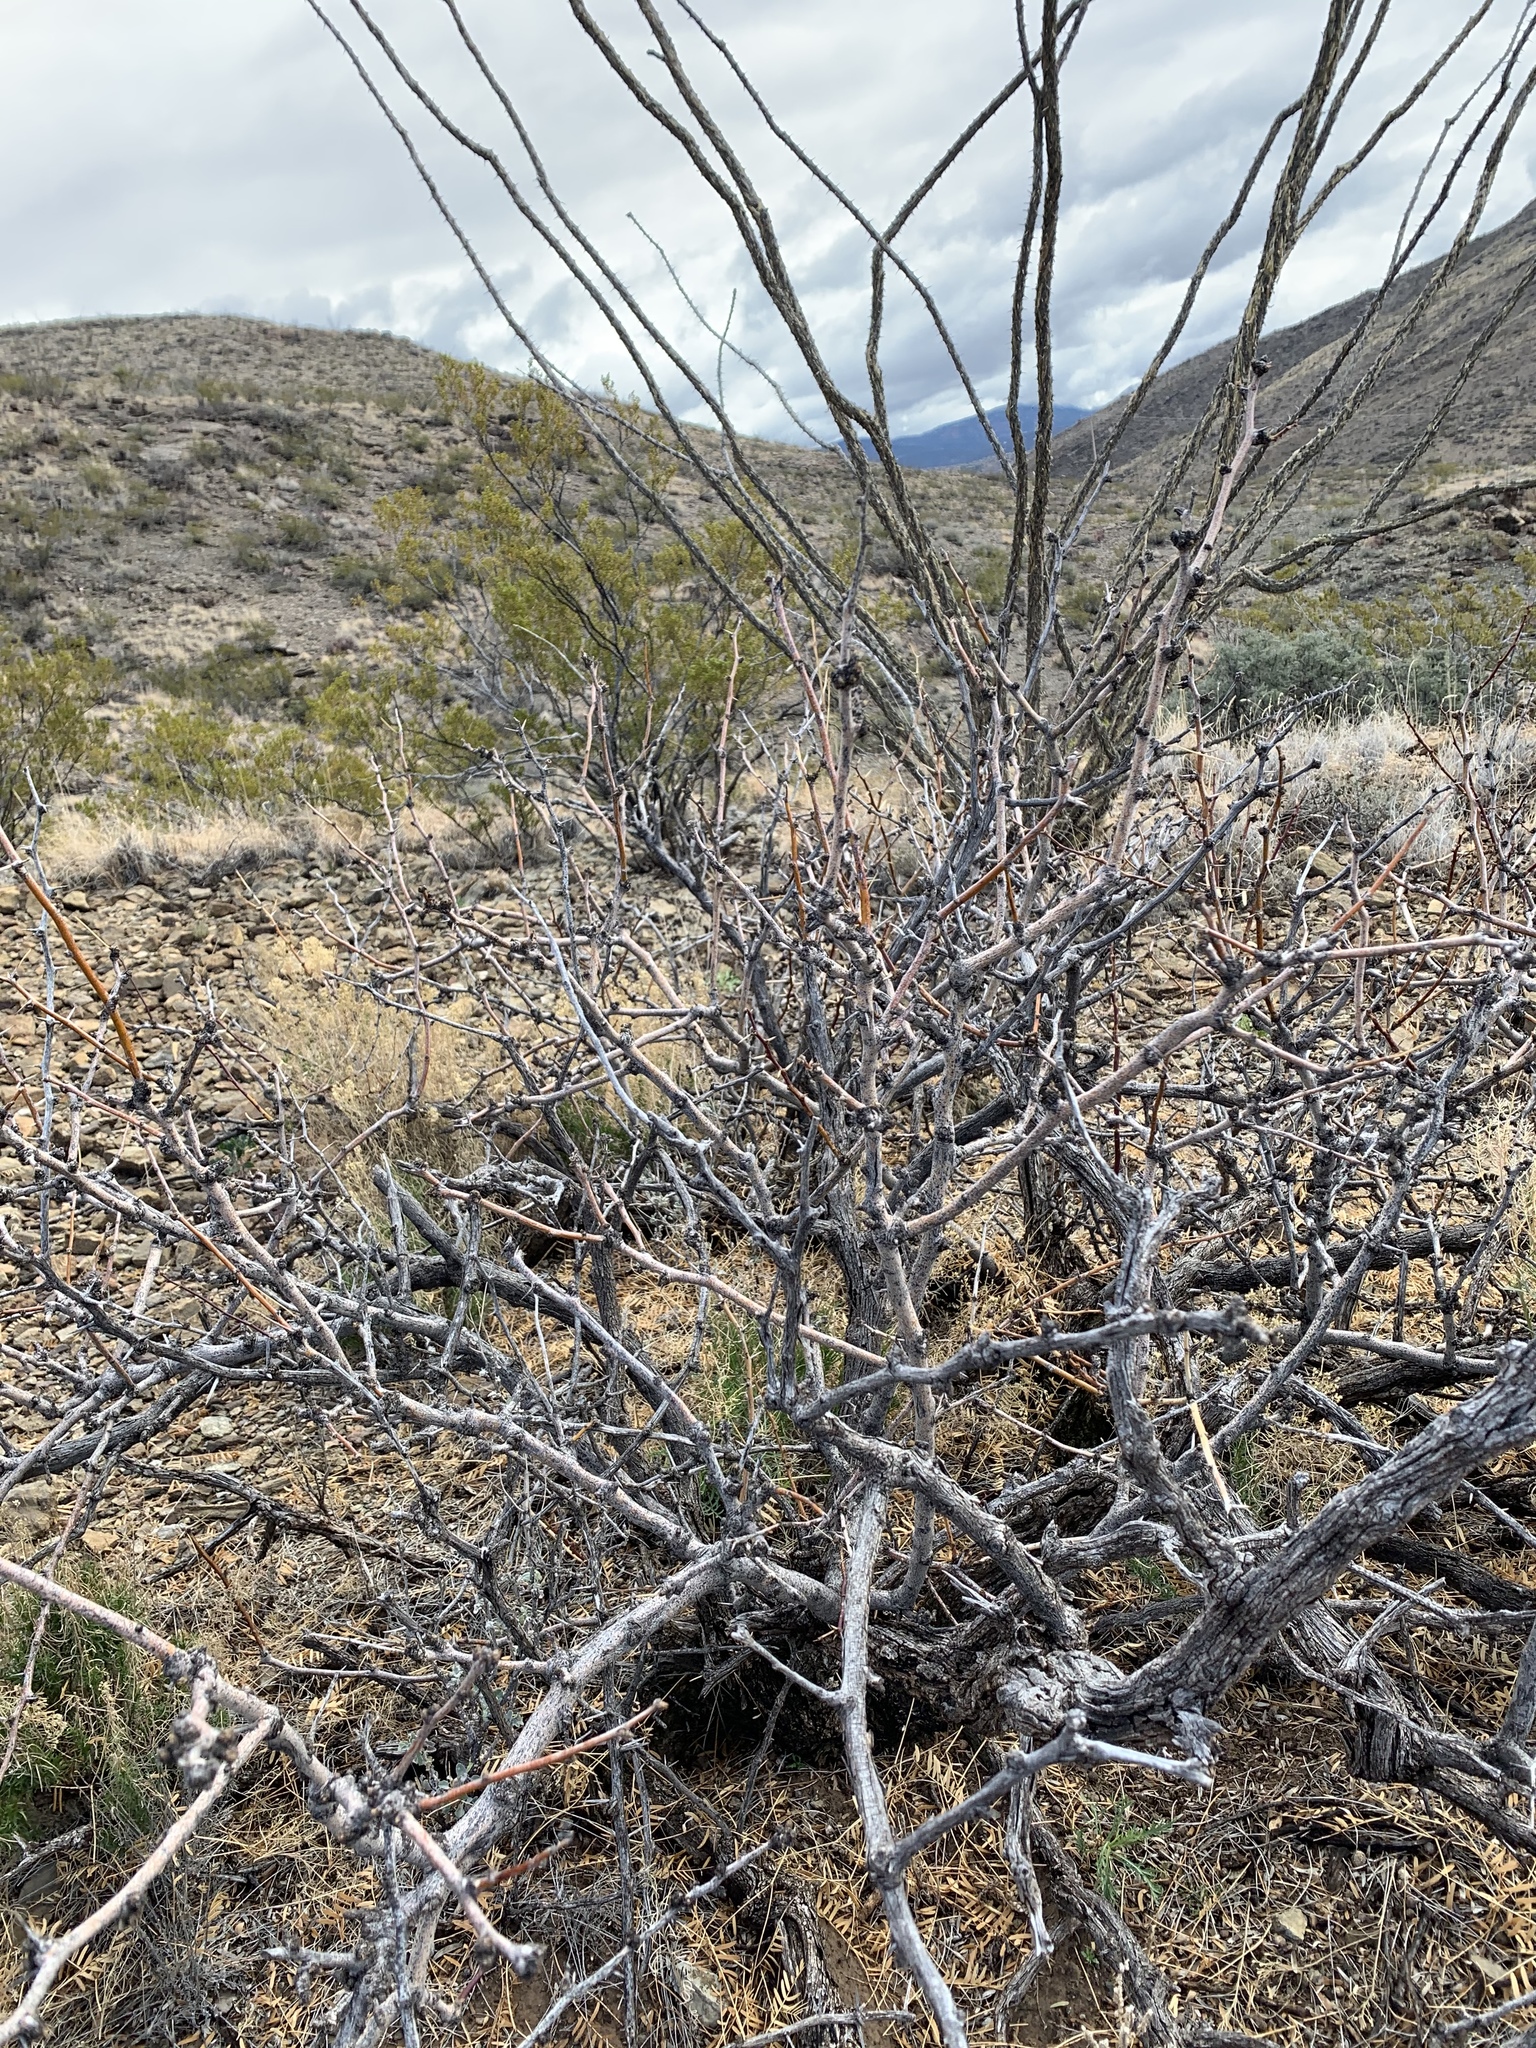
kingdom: Plantae
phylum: Tracheophyta
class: Magnoliopsida
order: Fabales
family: Fabaceae
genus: Prosopis
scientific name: Prosopis glandulosa
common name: Honey mesquite
